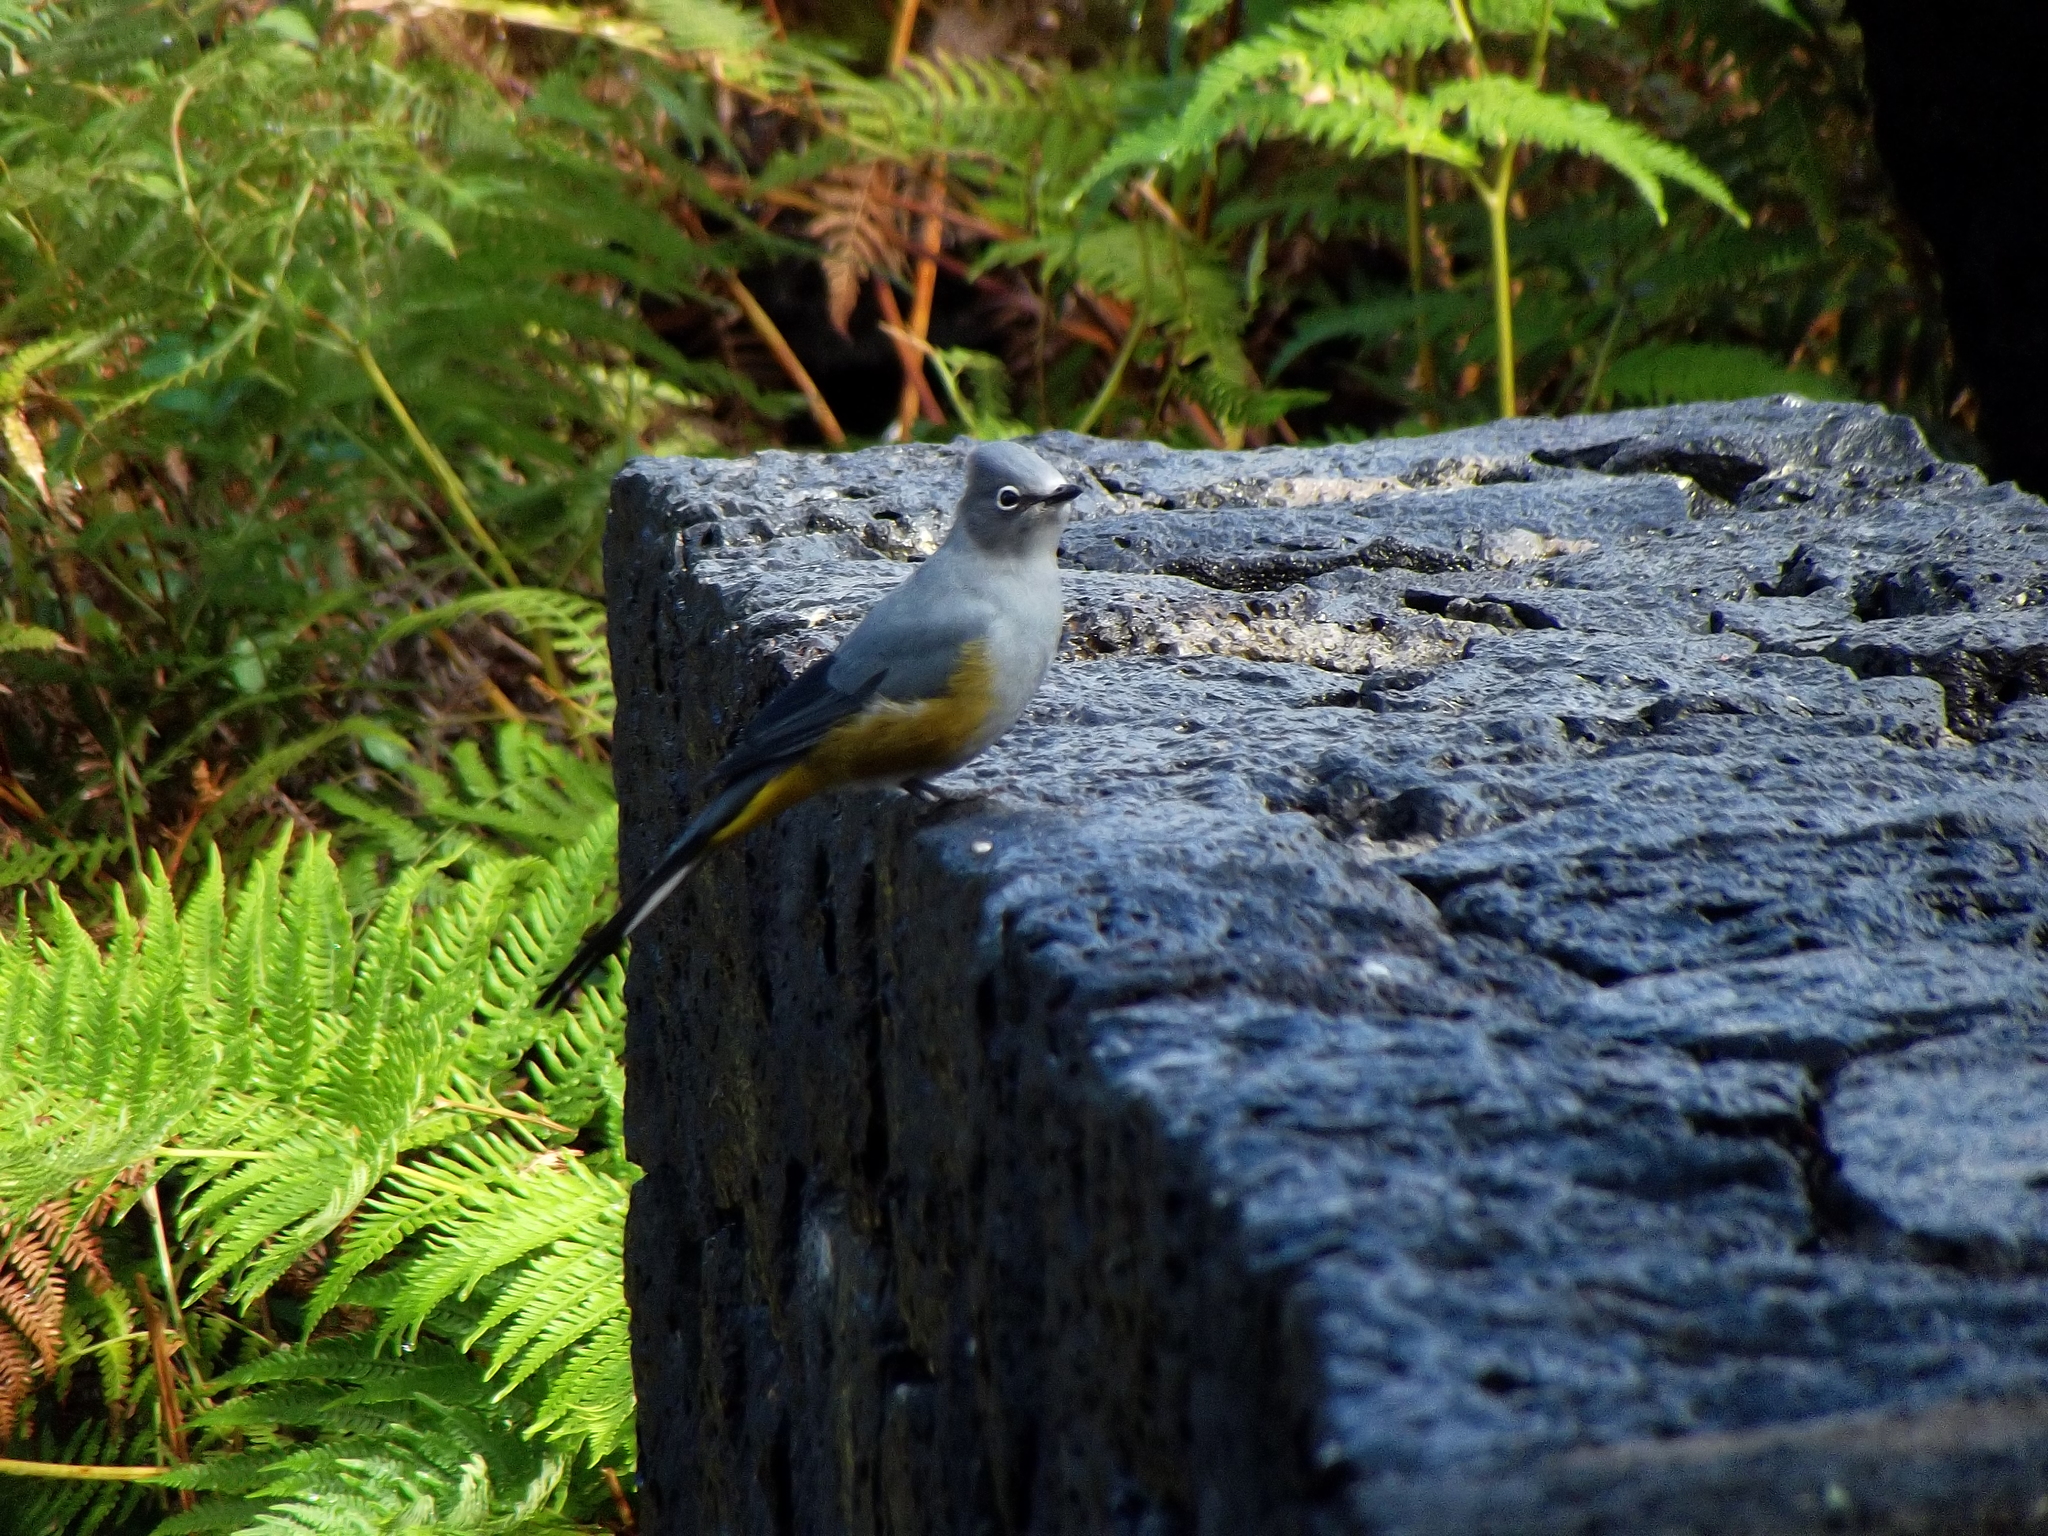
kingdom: Animalia
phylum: Chordata
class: Aves
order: Passeriformes
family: Ptilogonatidae
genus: Ptilogonys
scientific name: Ptilogonys cinereus
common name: Gray silky-flycatcher
